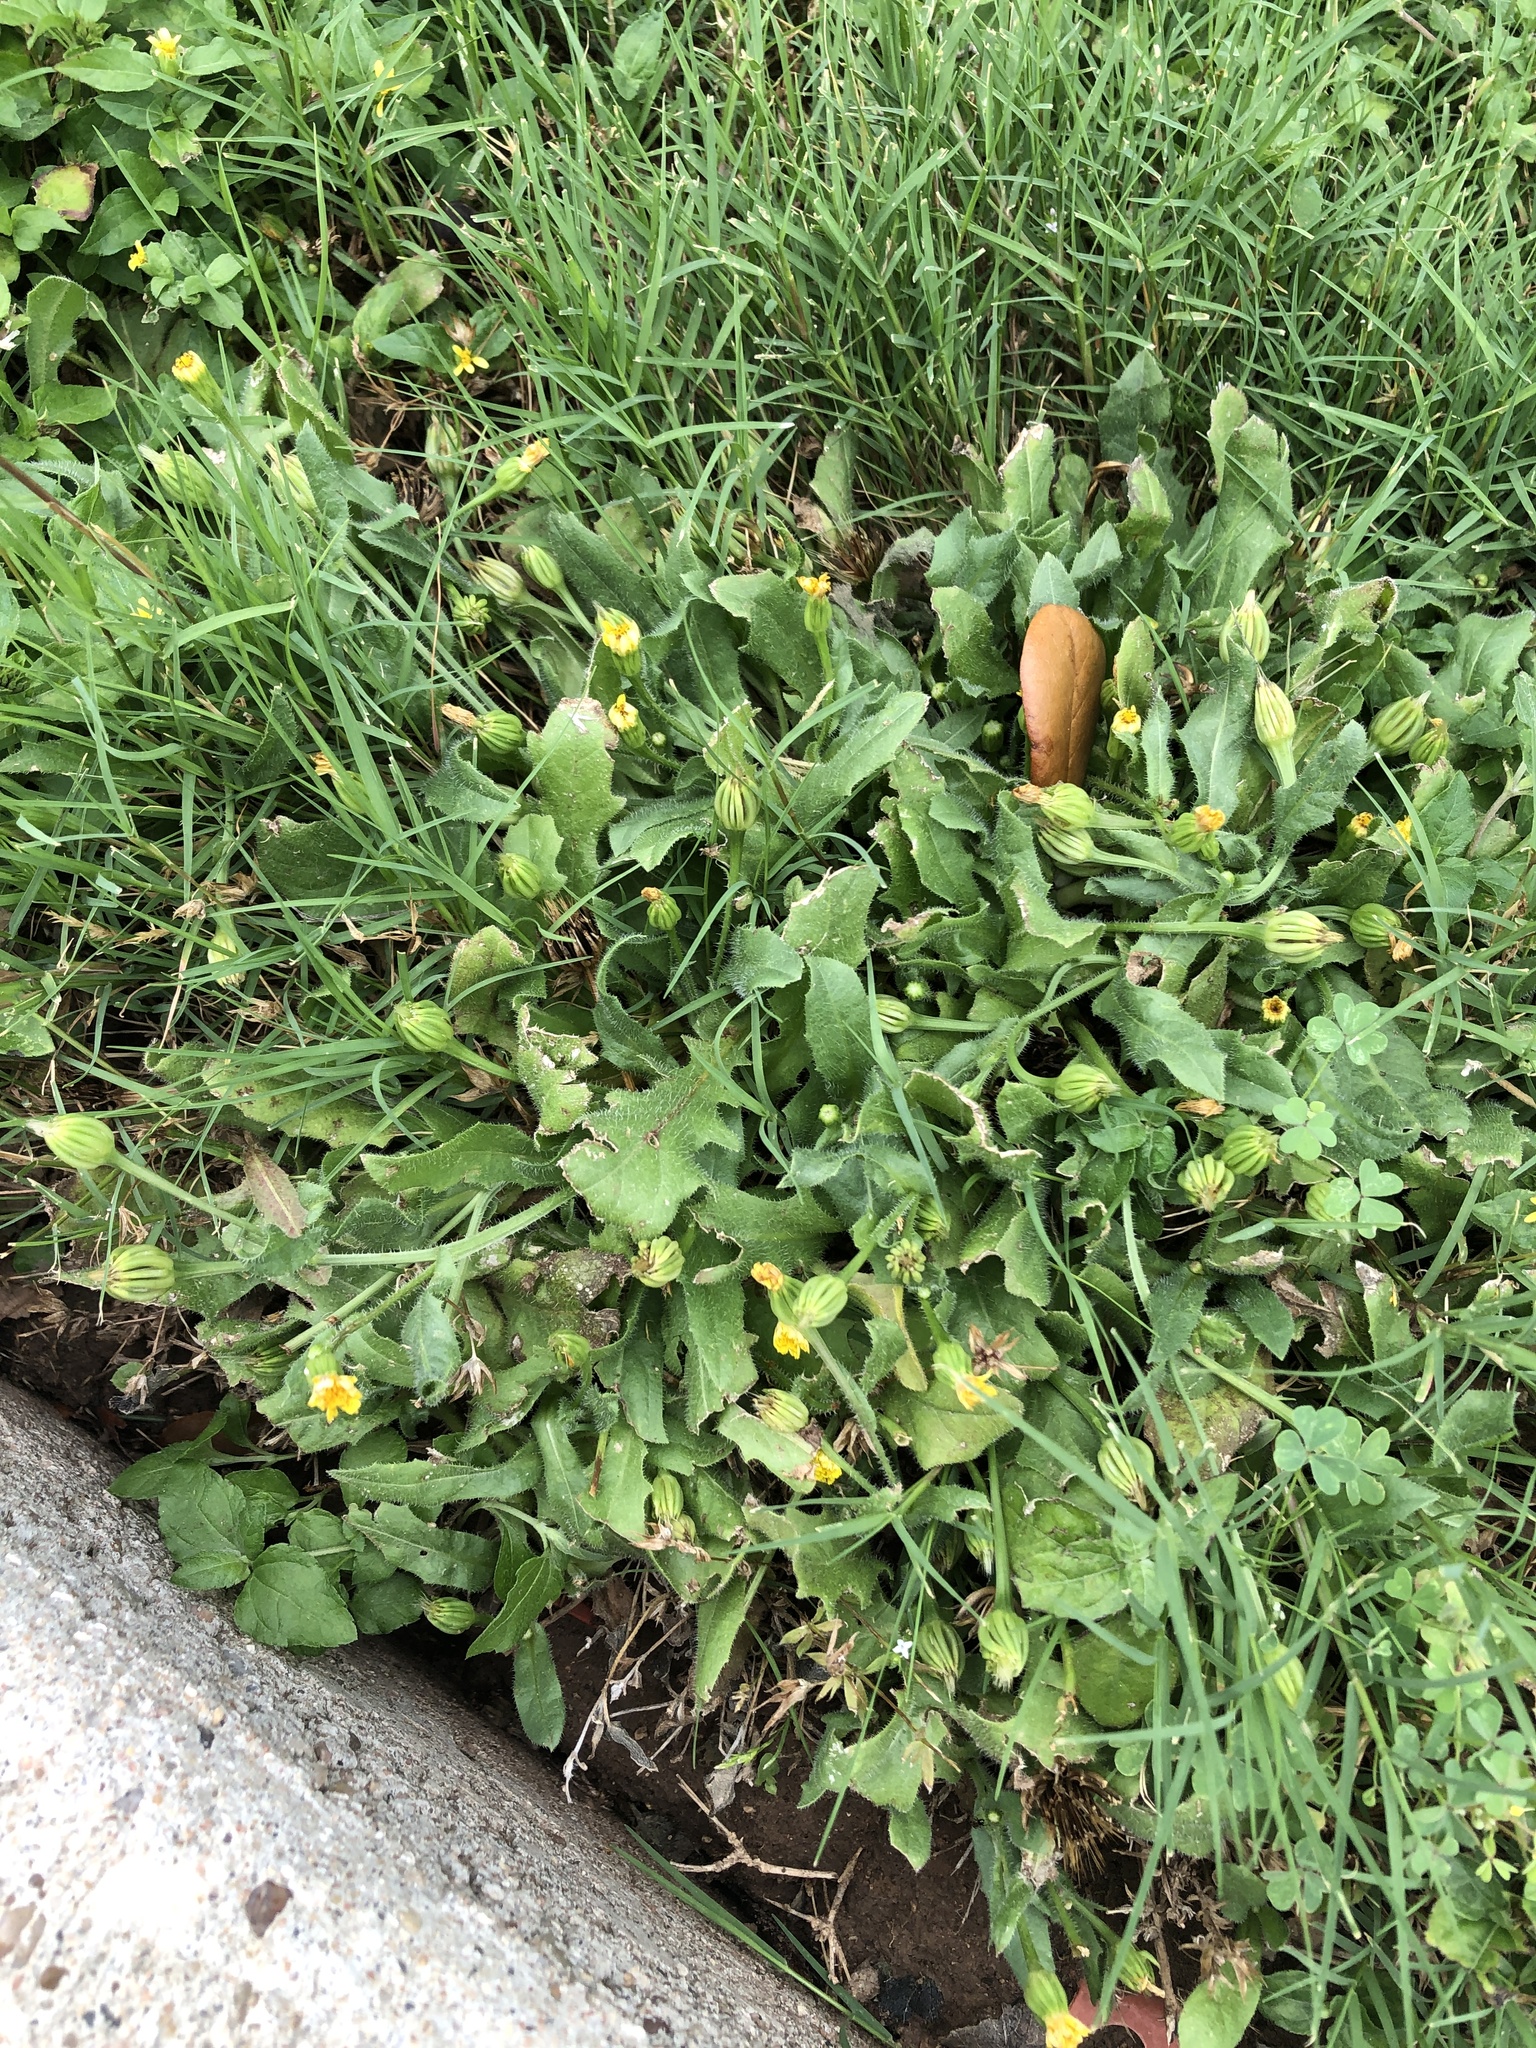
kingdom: Plantae
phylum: Tracheophyta
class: Magnoliopsida
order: Asterales
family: Asteraceae
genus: Hedypnois
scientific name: Hedypnois rhagadioloides
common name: Cretan weed
